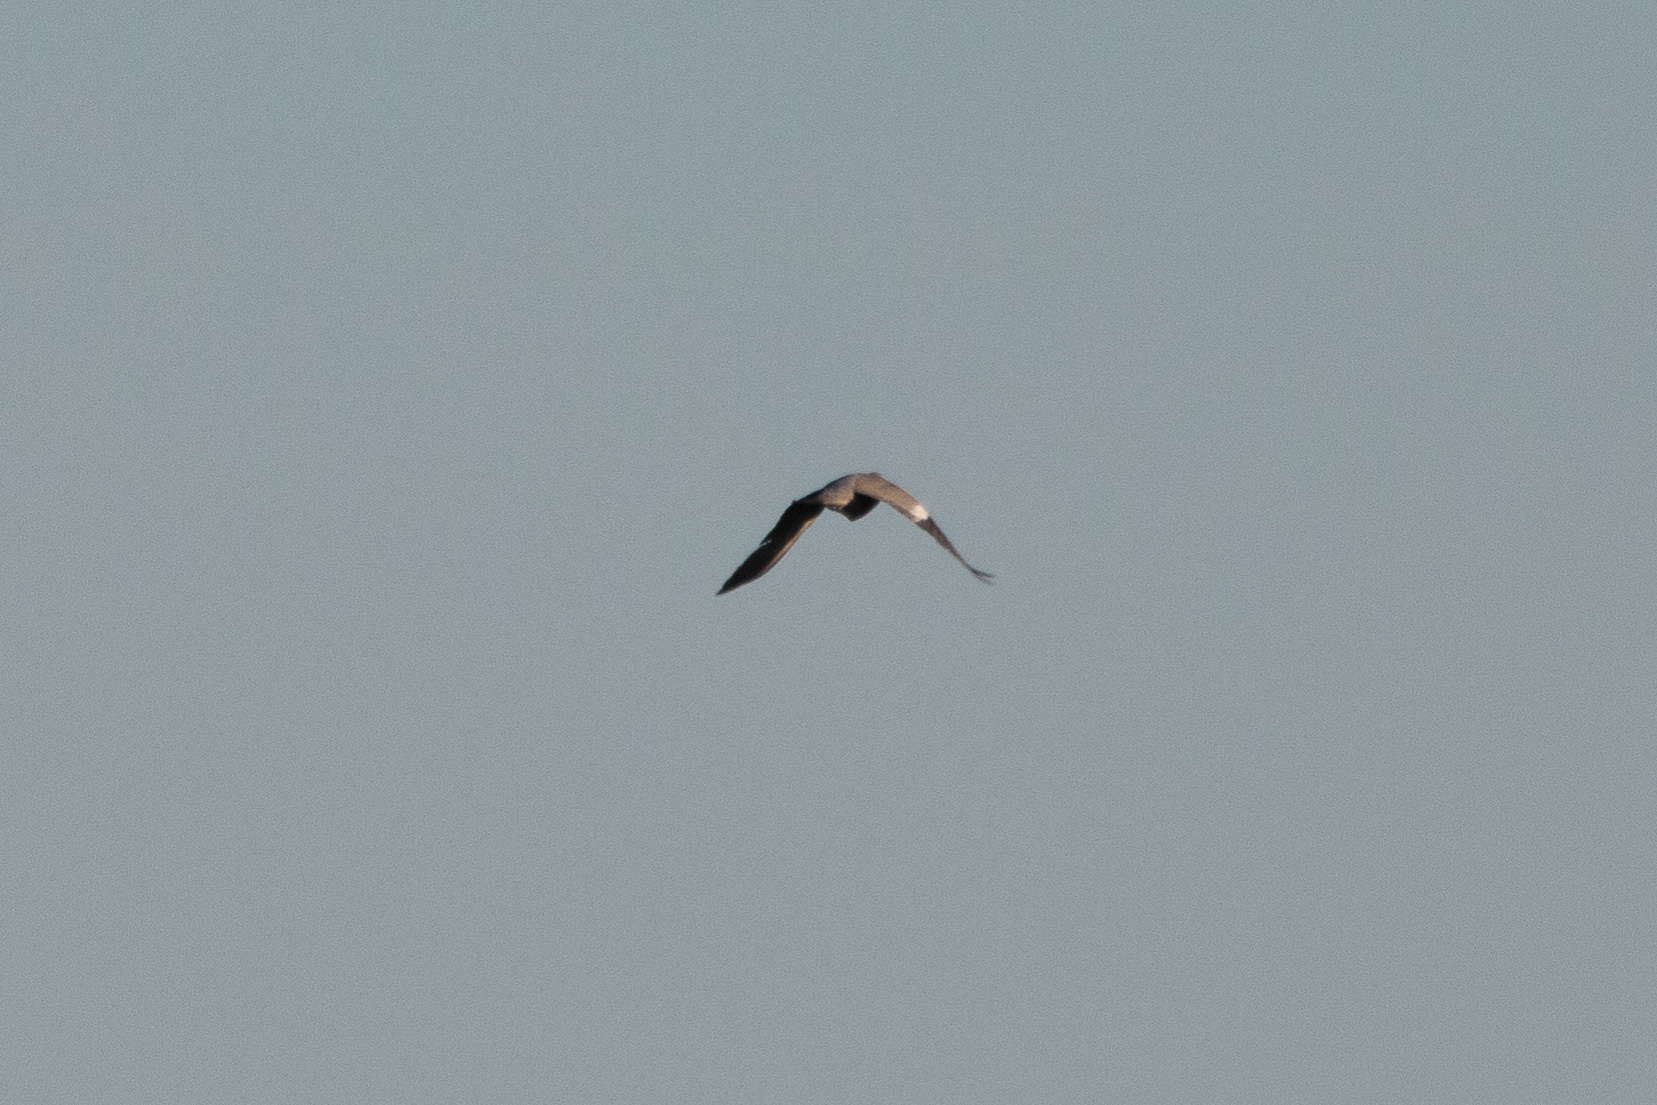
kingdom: Animalia
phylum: Chordata
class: Aves
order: Columbiformes
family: Columbidae
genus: Columba
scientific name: Columba palumbus
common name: Common wood pigeon
